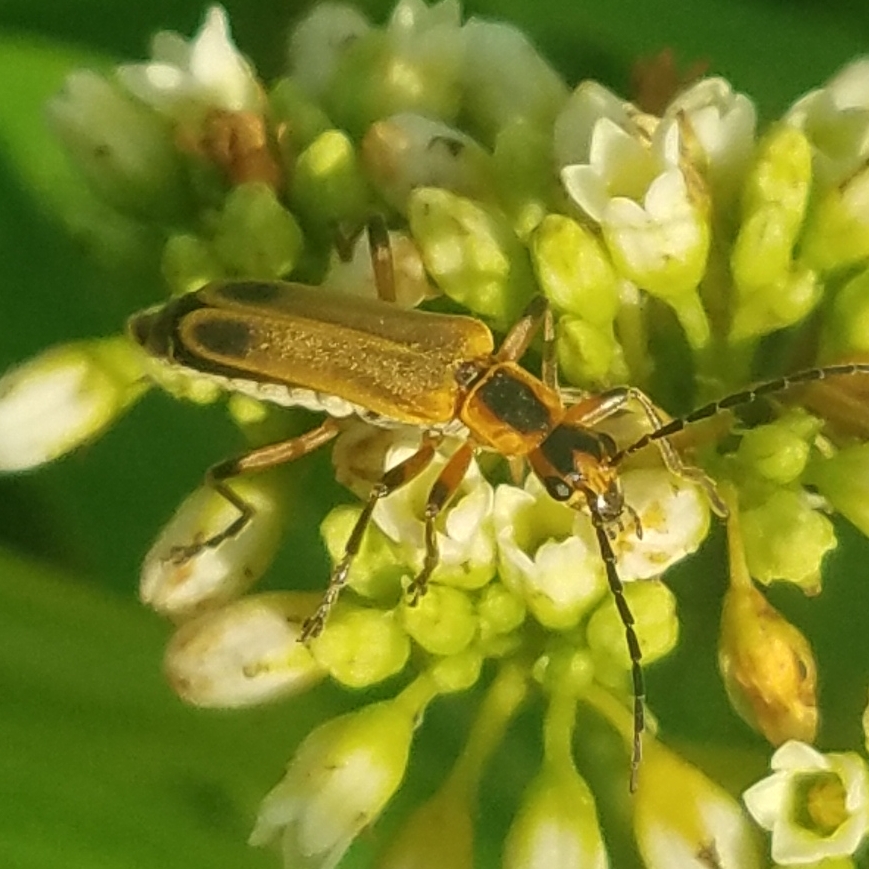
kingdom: Animalia
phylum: Arthropoda
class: Insecta
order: Coleoptera
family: Cantharidae
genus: Chauliognathus
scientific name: Chauliognathus marginatus
